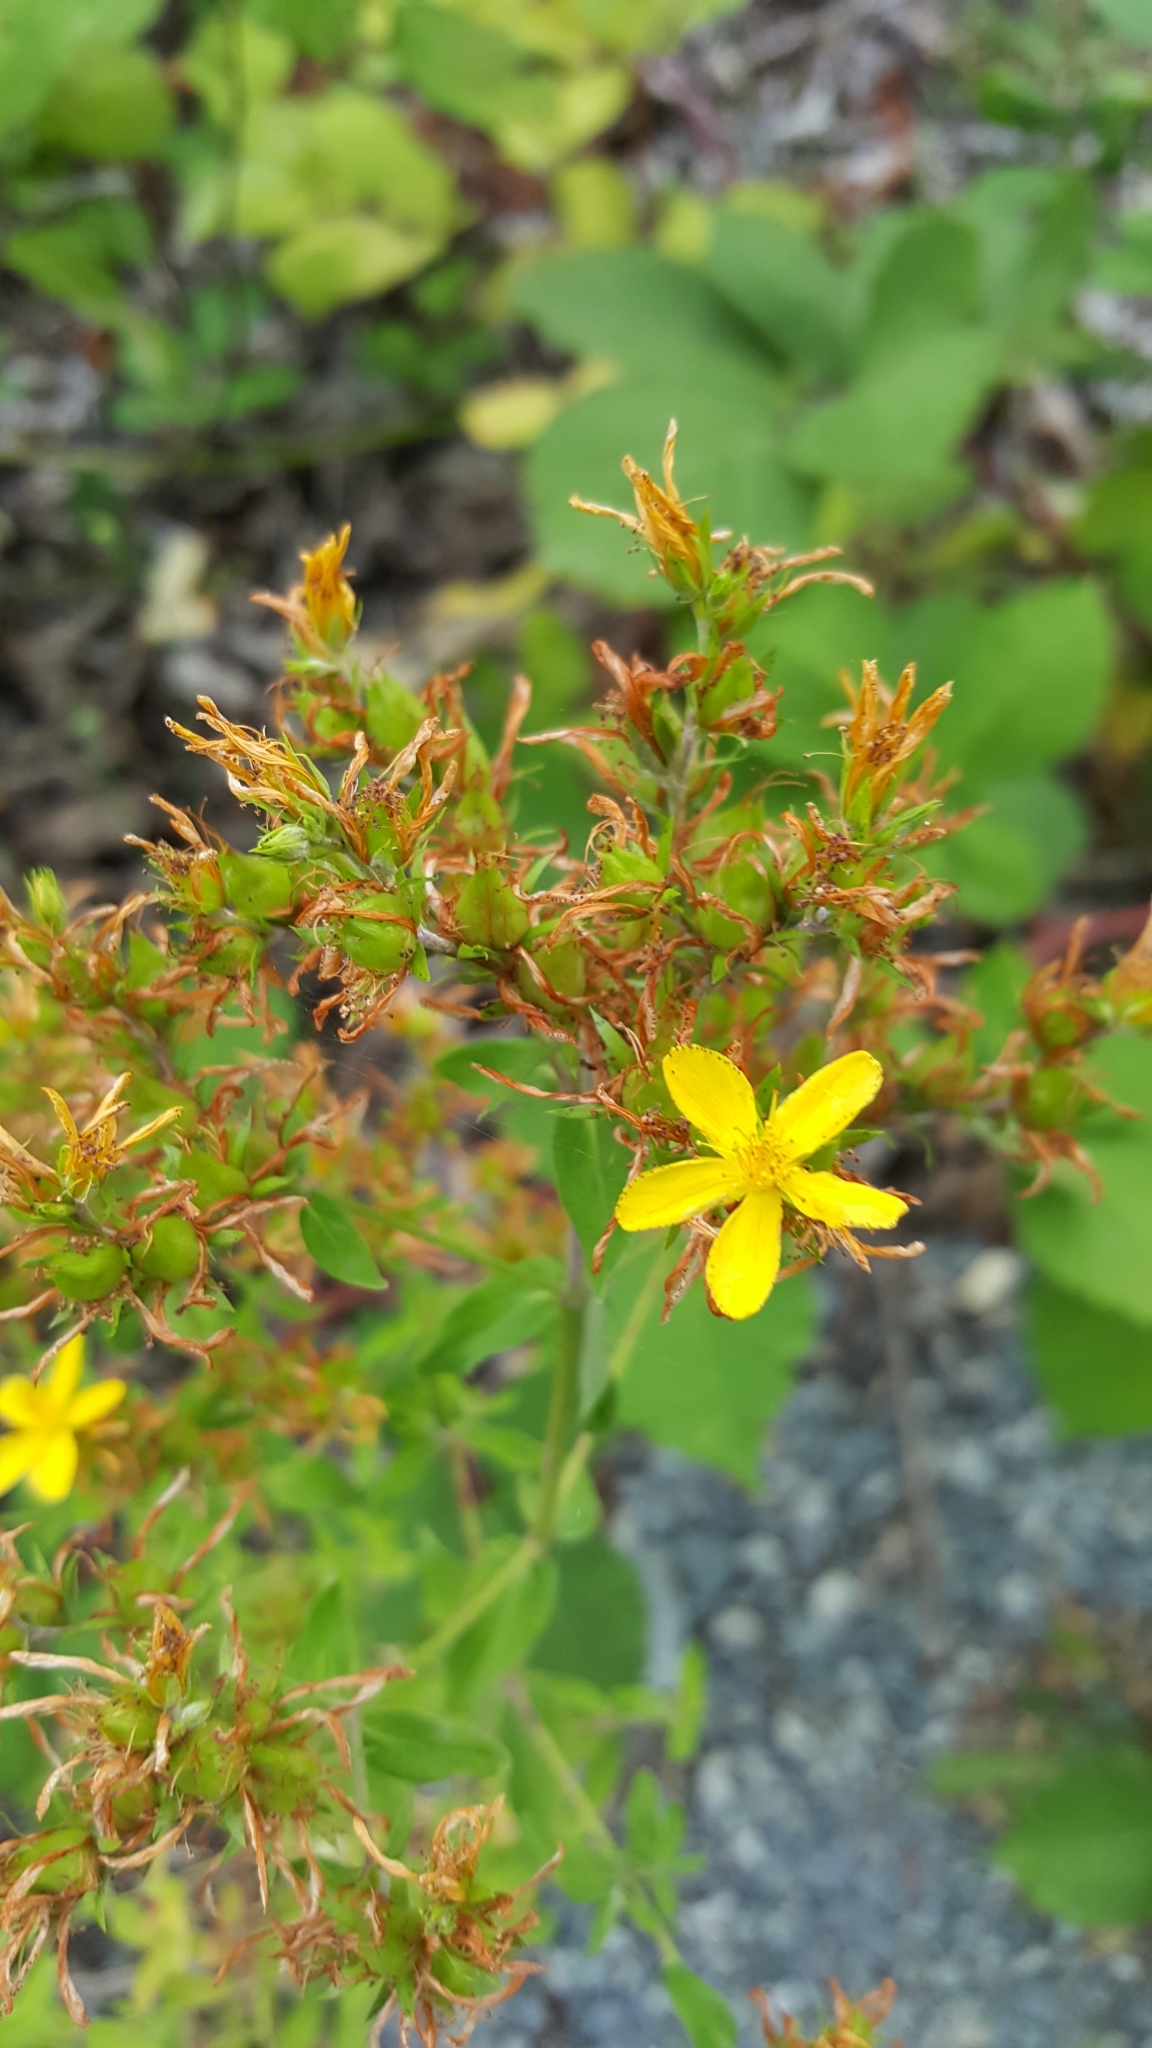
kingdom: Plantae
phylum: Tracheophyta
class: Magnoliopsida
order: Malpighiales
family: Hypericaceae
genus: Hypericum
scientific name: Hypericum perforatum
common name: Common st. johnswort
